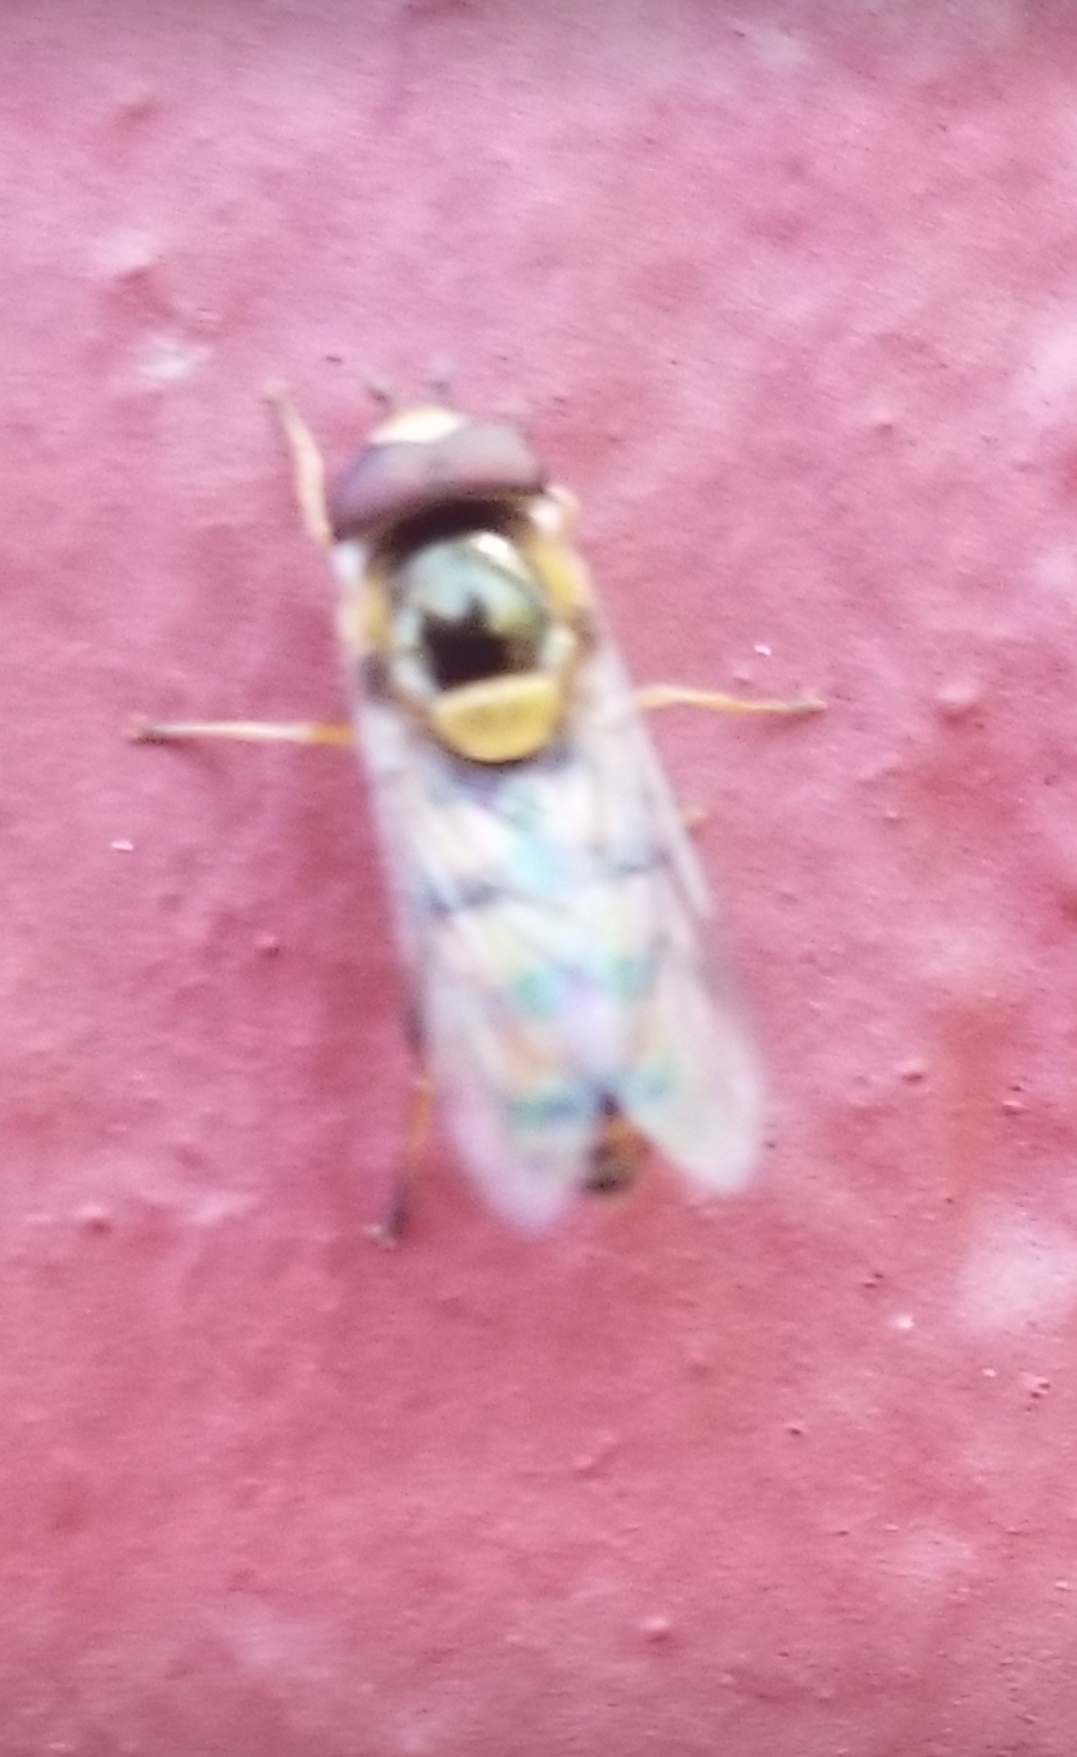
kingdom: Animalia
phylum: Arthropoda
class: Insecta
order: Diptera
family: Syrphidae
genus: Eupeodes
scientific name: Eupeodes
